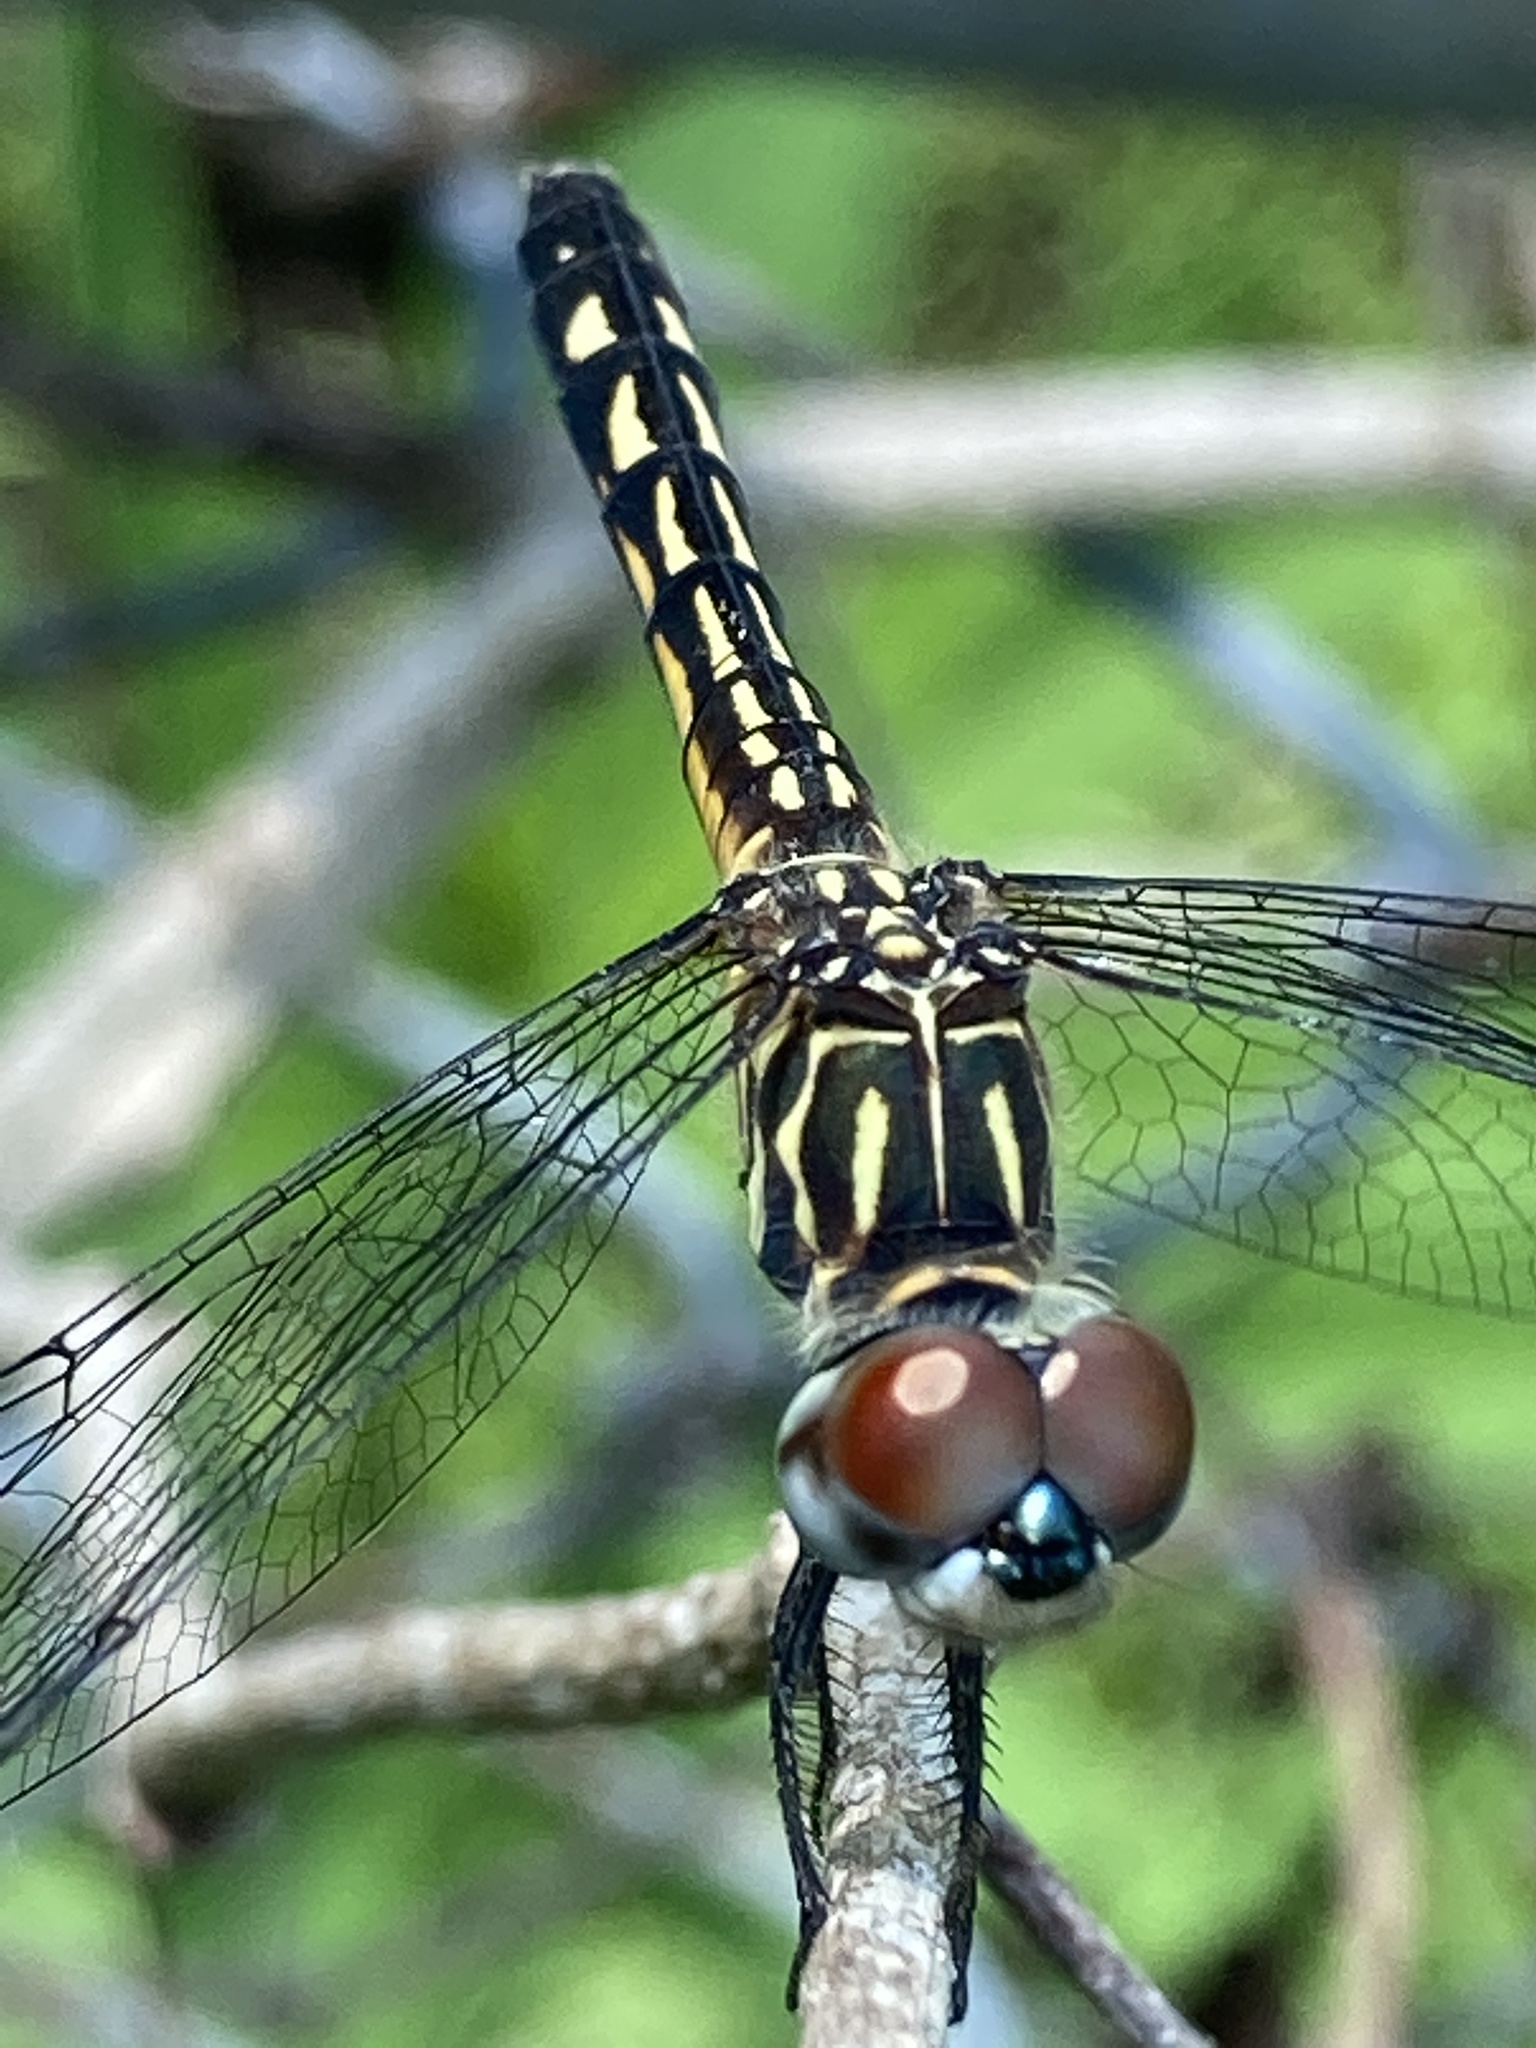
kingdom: Animalia
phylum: Arthropoda
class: Insecta
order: Odonata
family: Libellulidae
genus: Pachydiplax
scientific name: Pachydiplax longipennis
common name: Blue dasher
